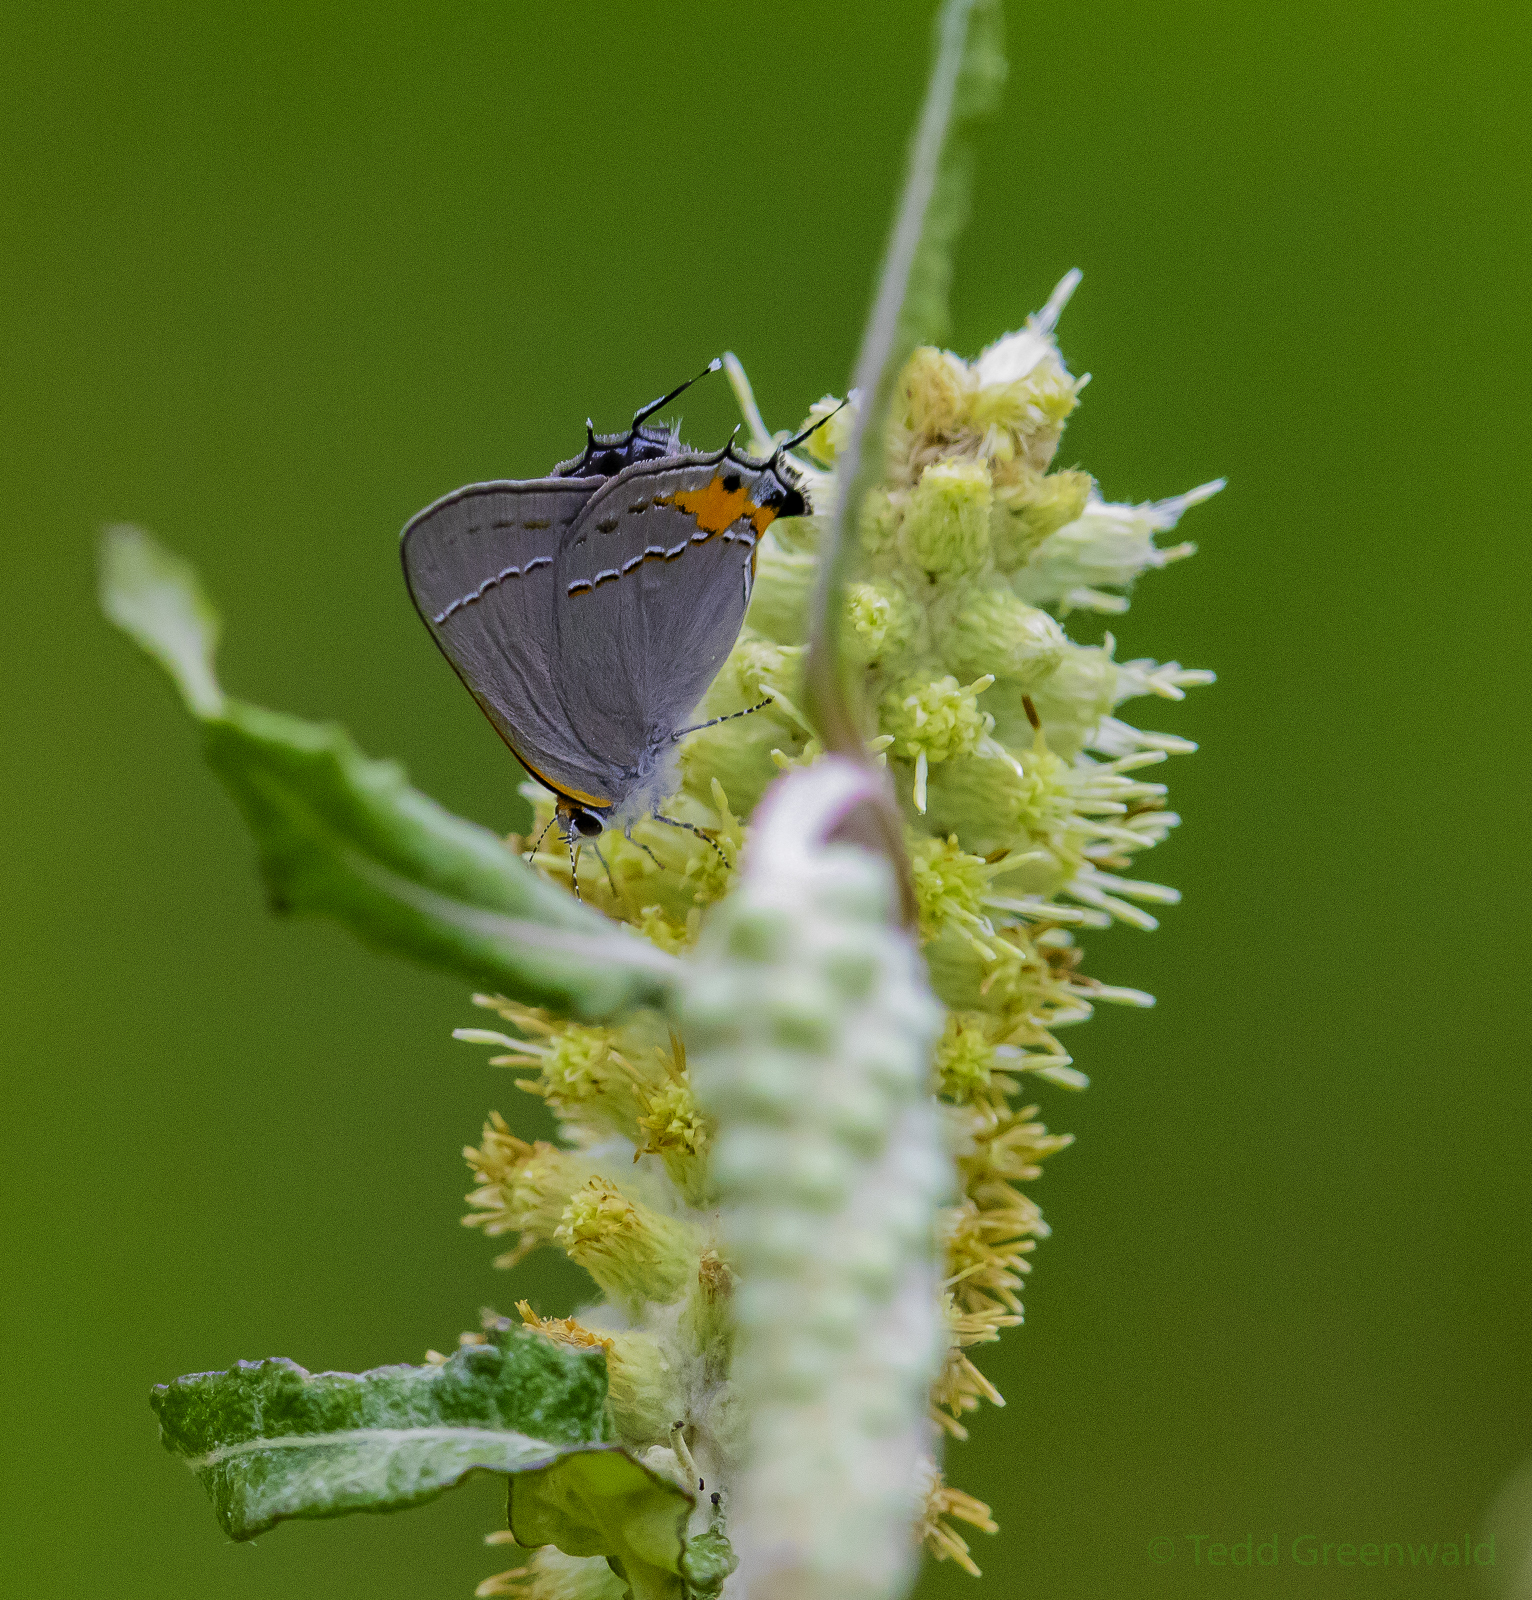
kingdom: Animalia
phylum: Arthropoda
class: Insecta
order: Lepidoptera
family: Lycaenidae
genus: Strymon
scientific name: Strymon melinus
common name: Gray hairstreak
